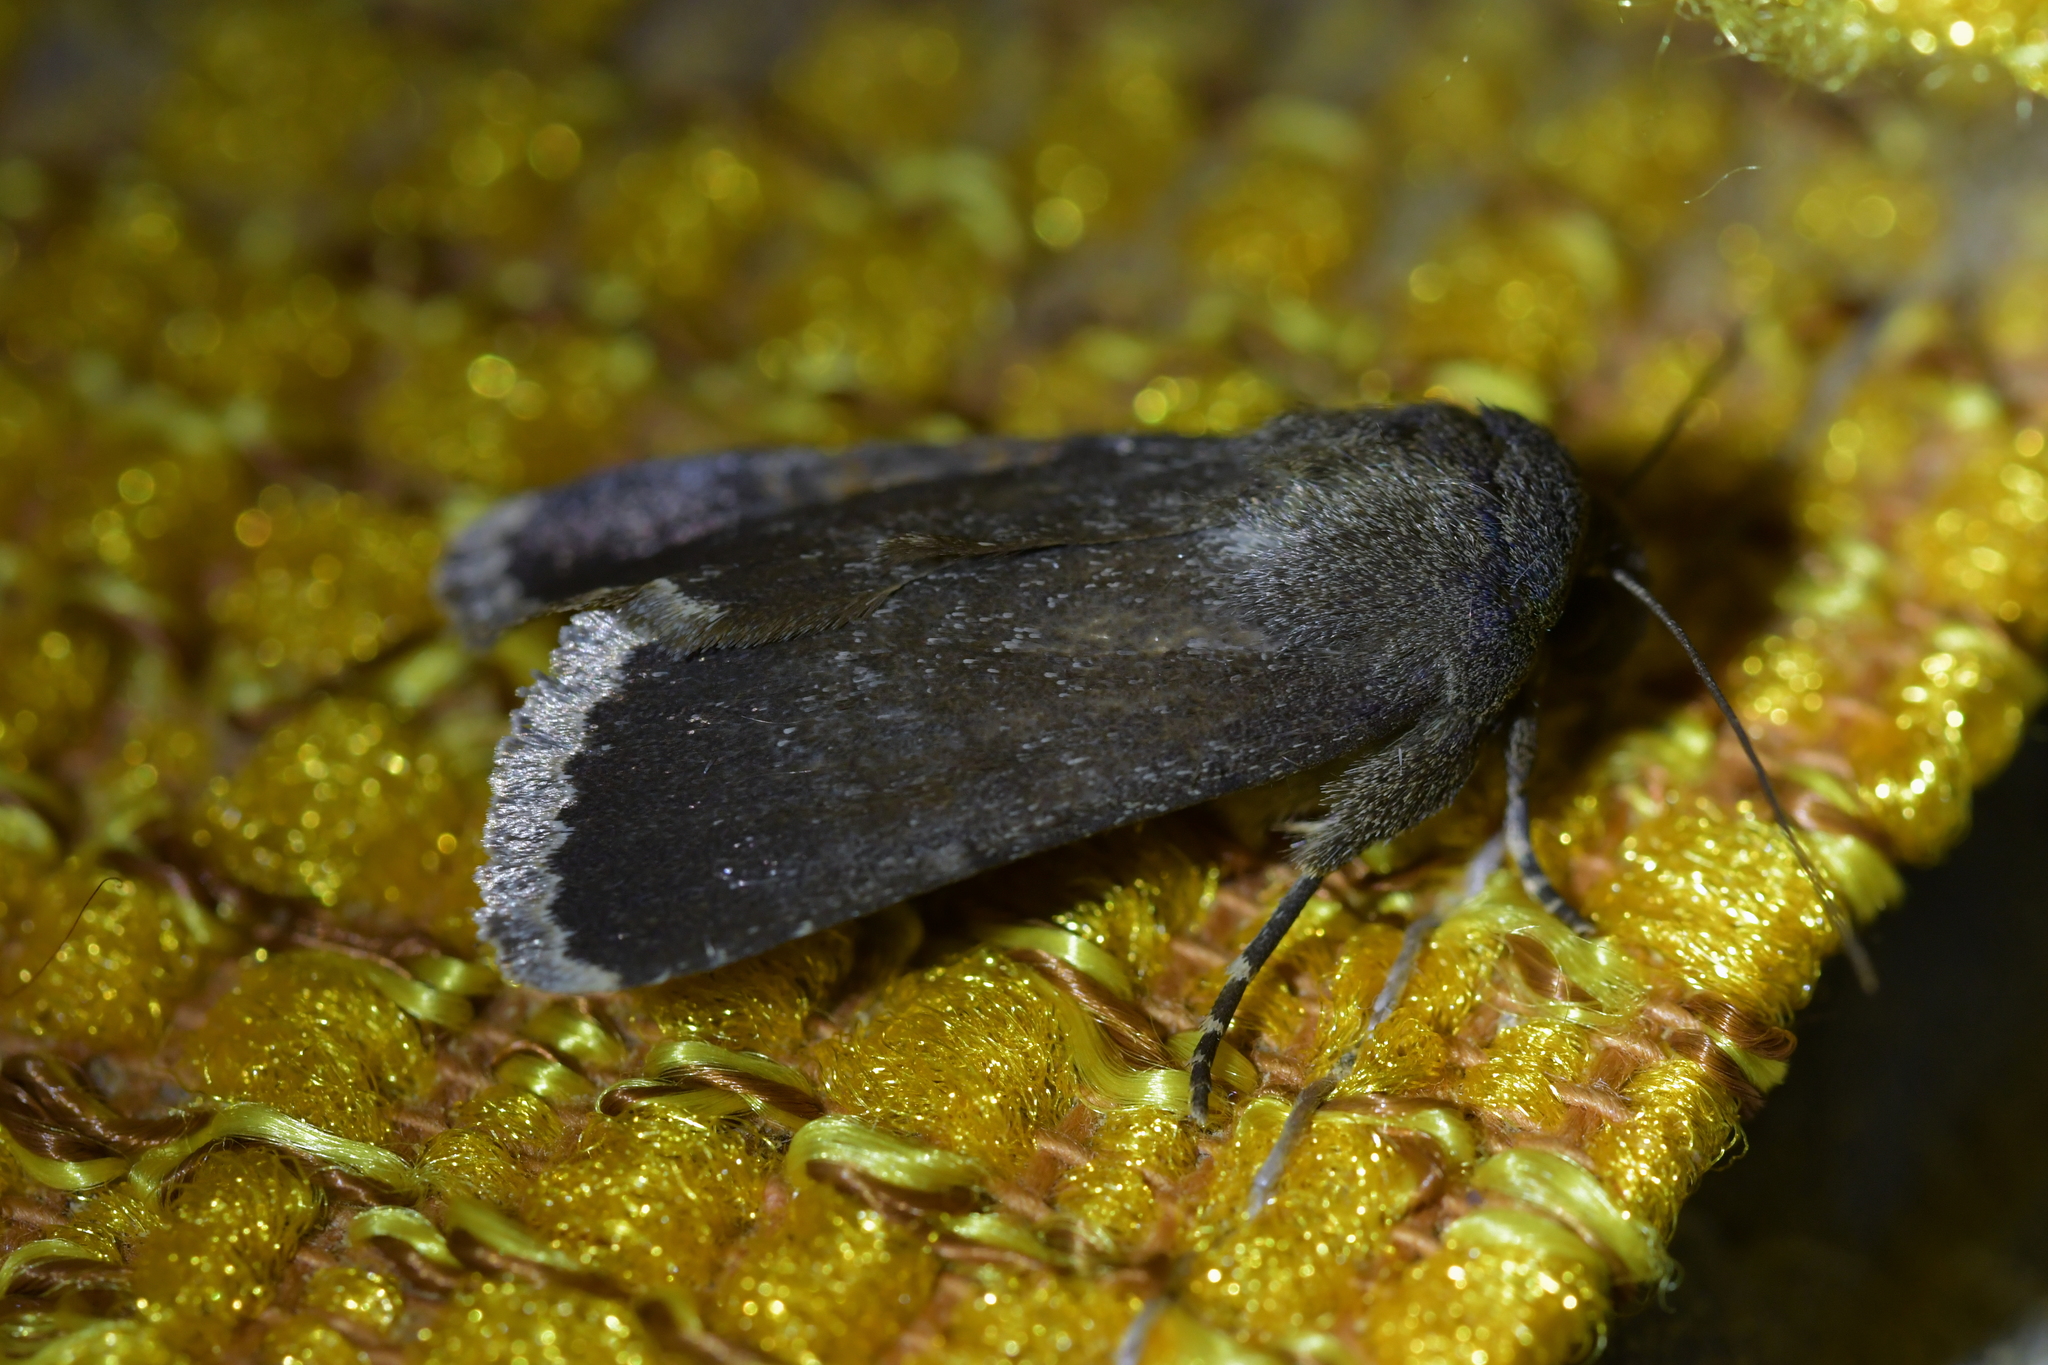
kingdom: Animalia
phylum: Arthropoda
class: Insecta
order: Lepidoptera
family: Noctuidae
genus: Bityla
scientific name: Bityla sericea
